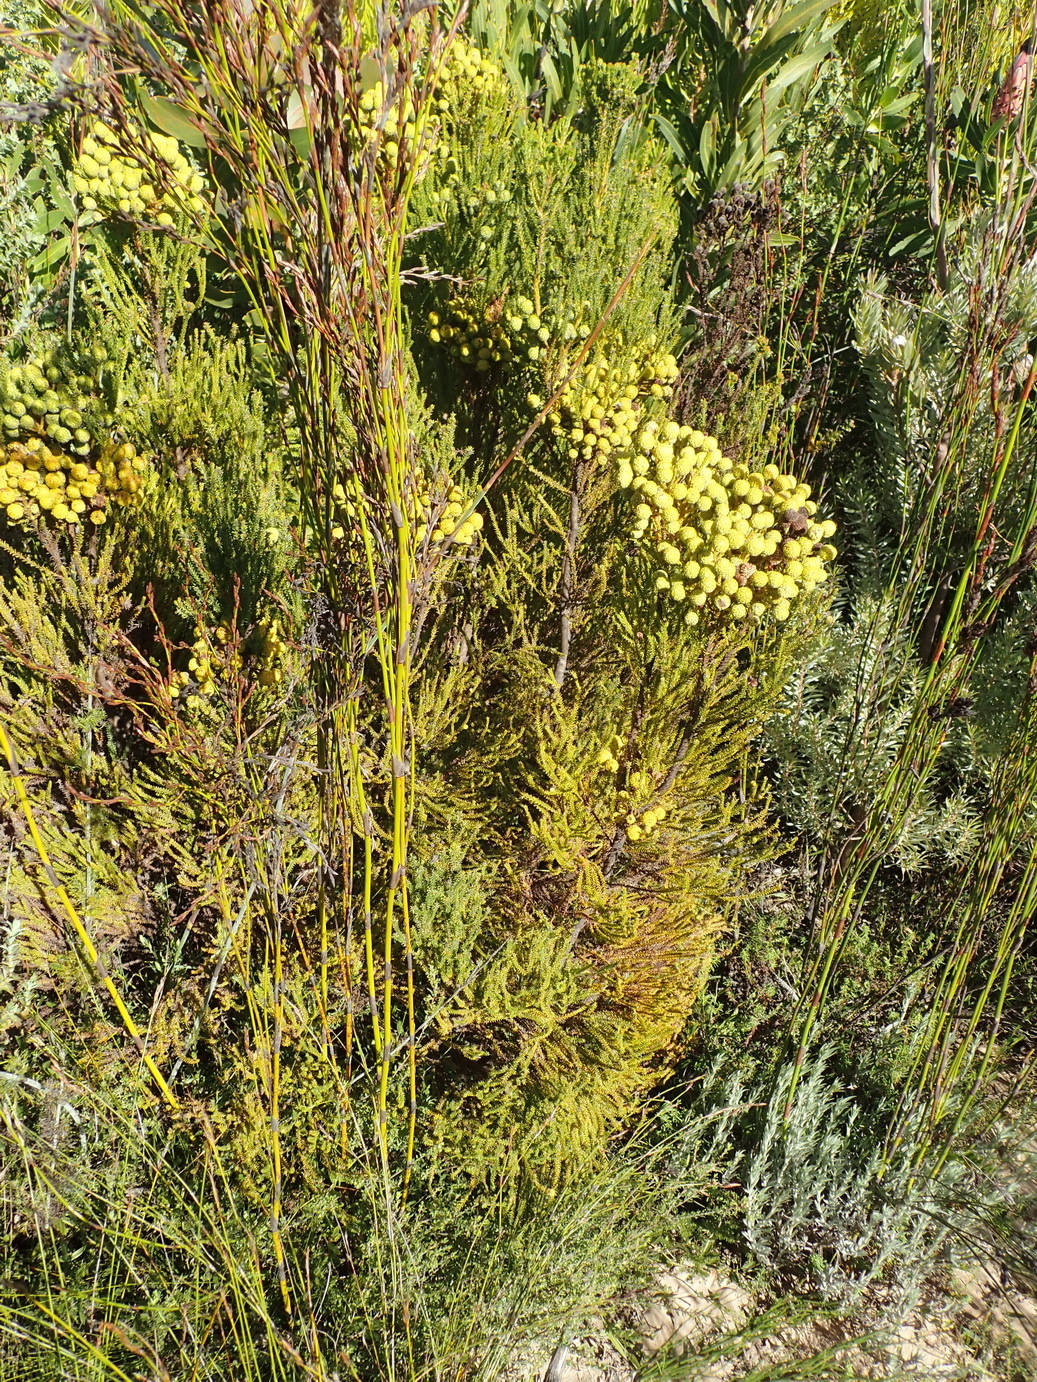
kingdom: Plantae
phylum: Tracheophyta
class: Magnoliopsida
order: Bruniales
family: Bruniaceae
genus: Berzelia
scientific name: Berzelia intermedia
